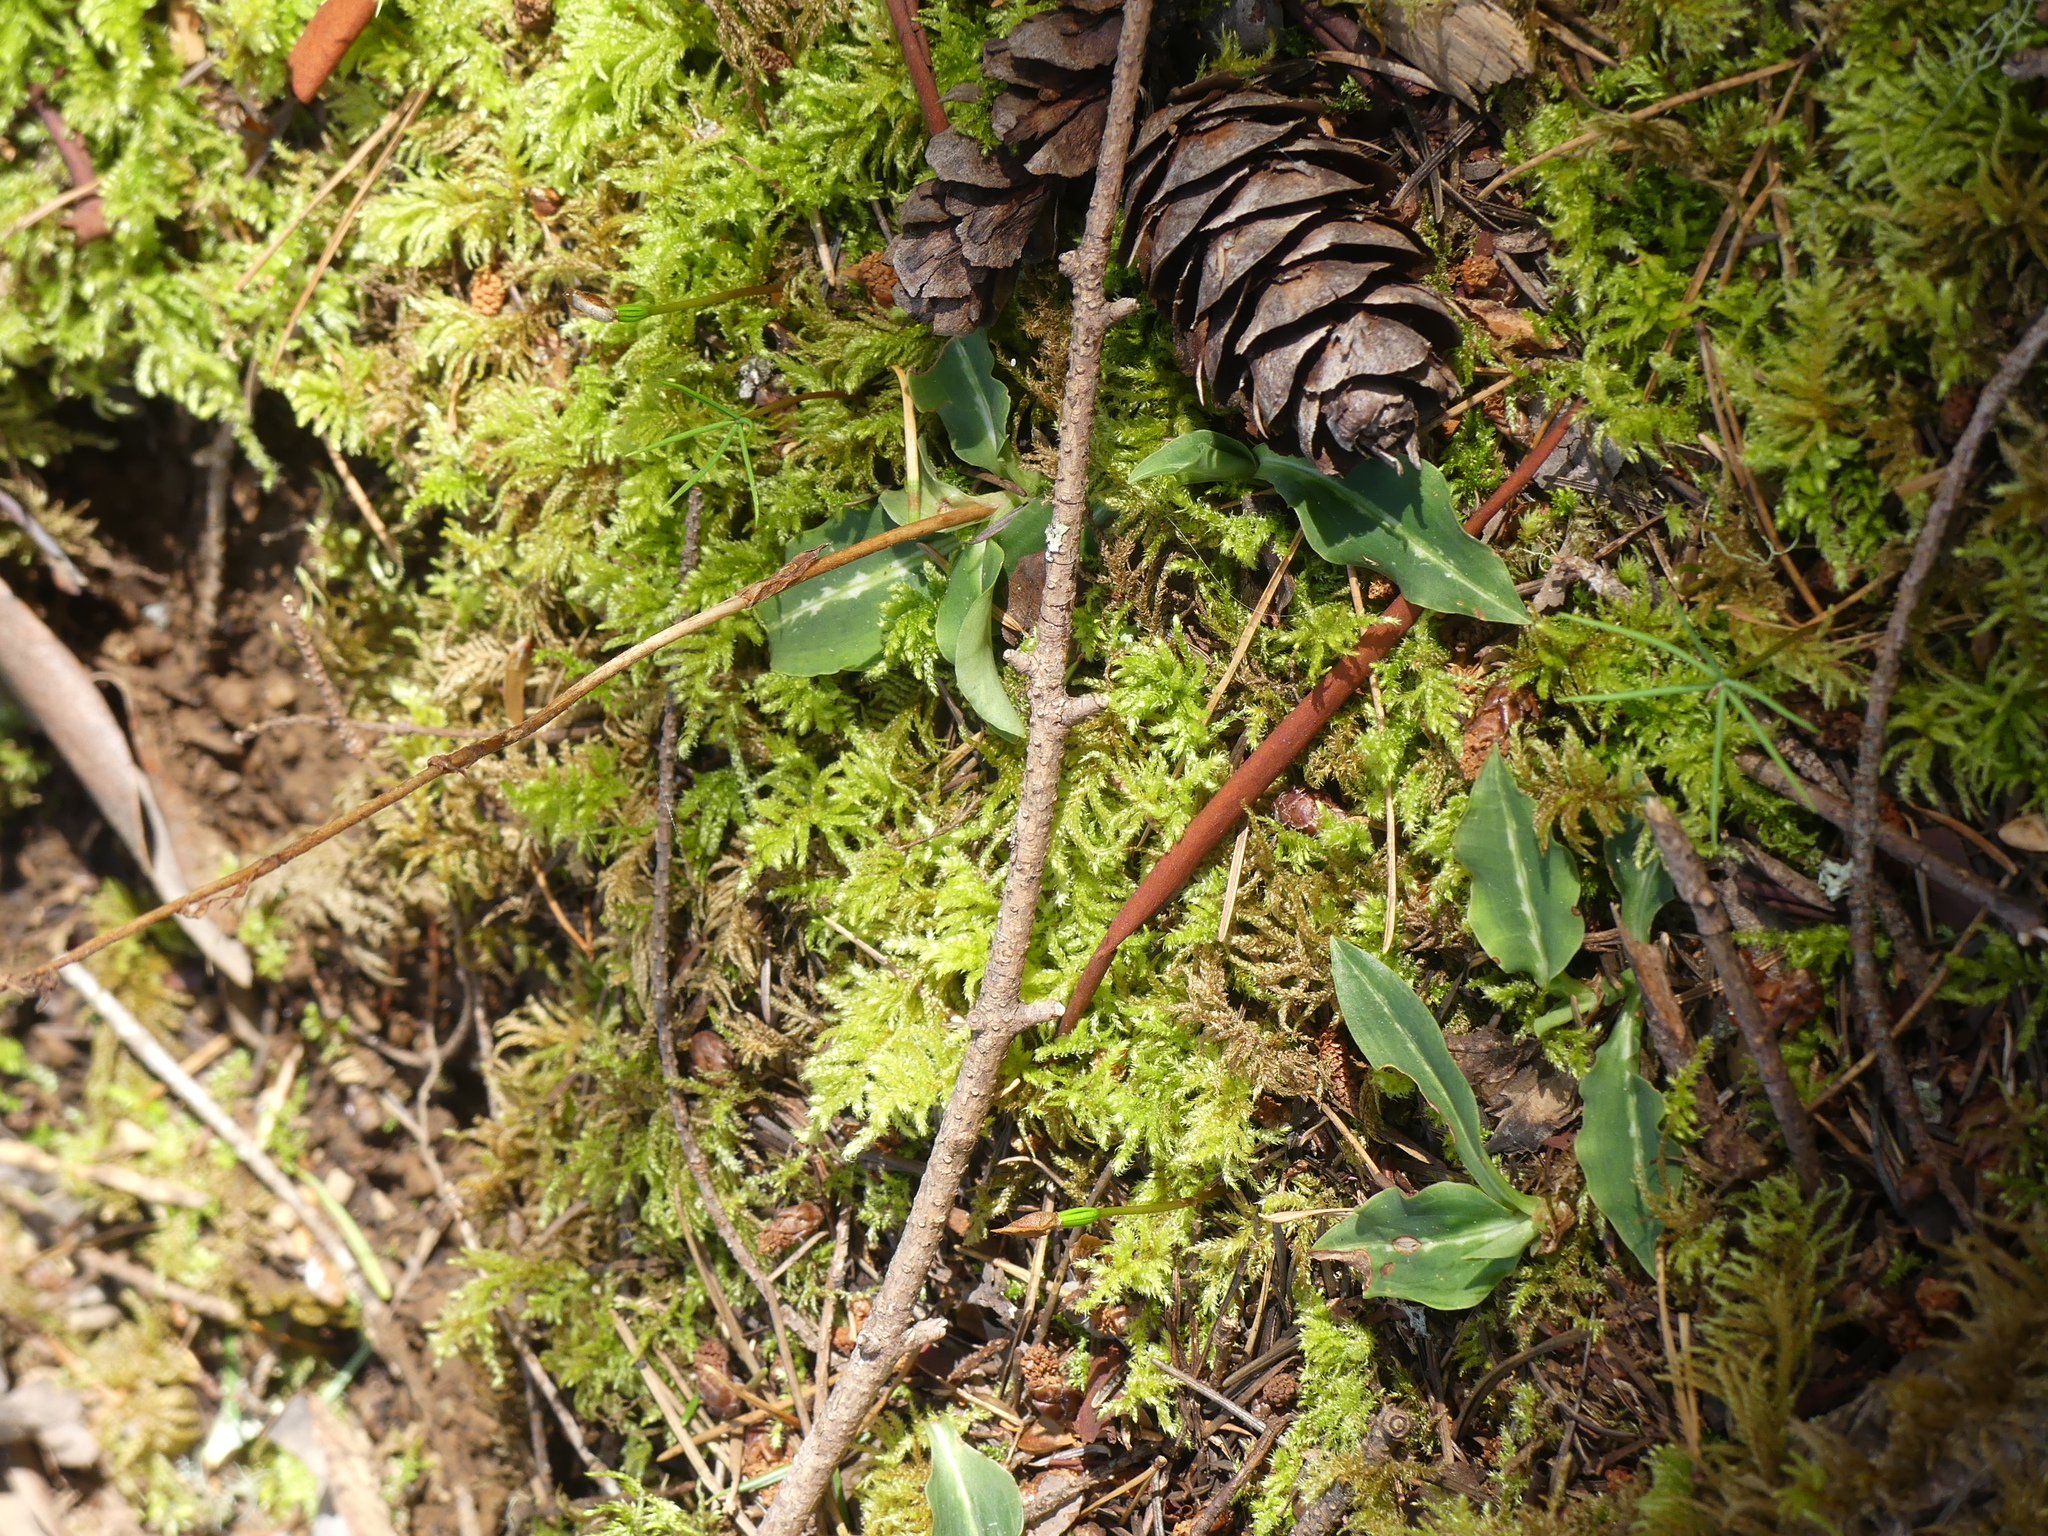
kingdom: Plantae
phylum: Tracheophyta
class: Liliopsida
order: Asparagales
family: Orchidaceae
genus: Goodyera
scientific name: Goodyera oblongifolia
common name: Giant rattlesnake-plantain
